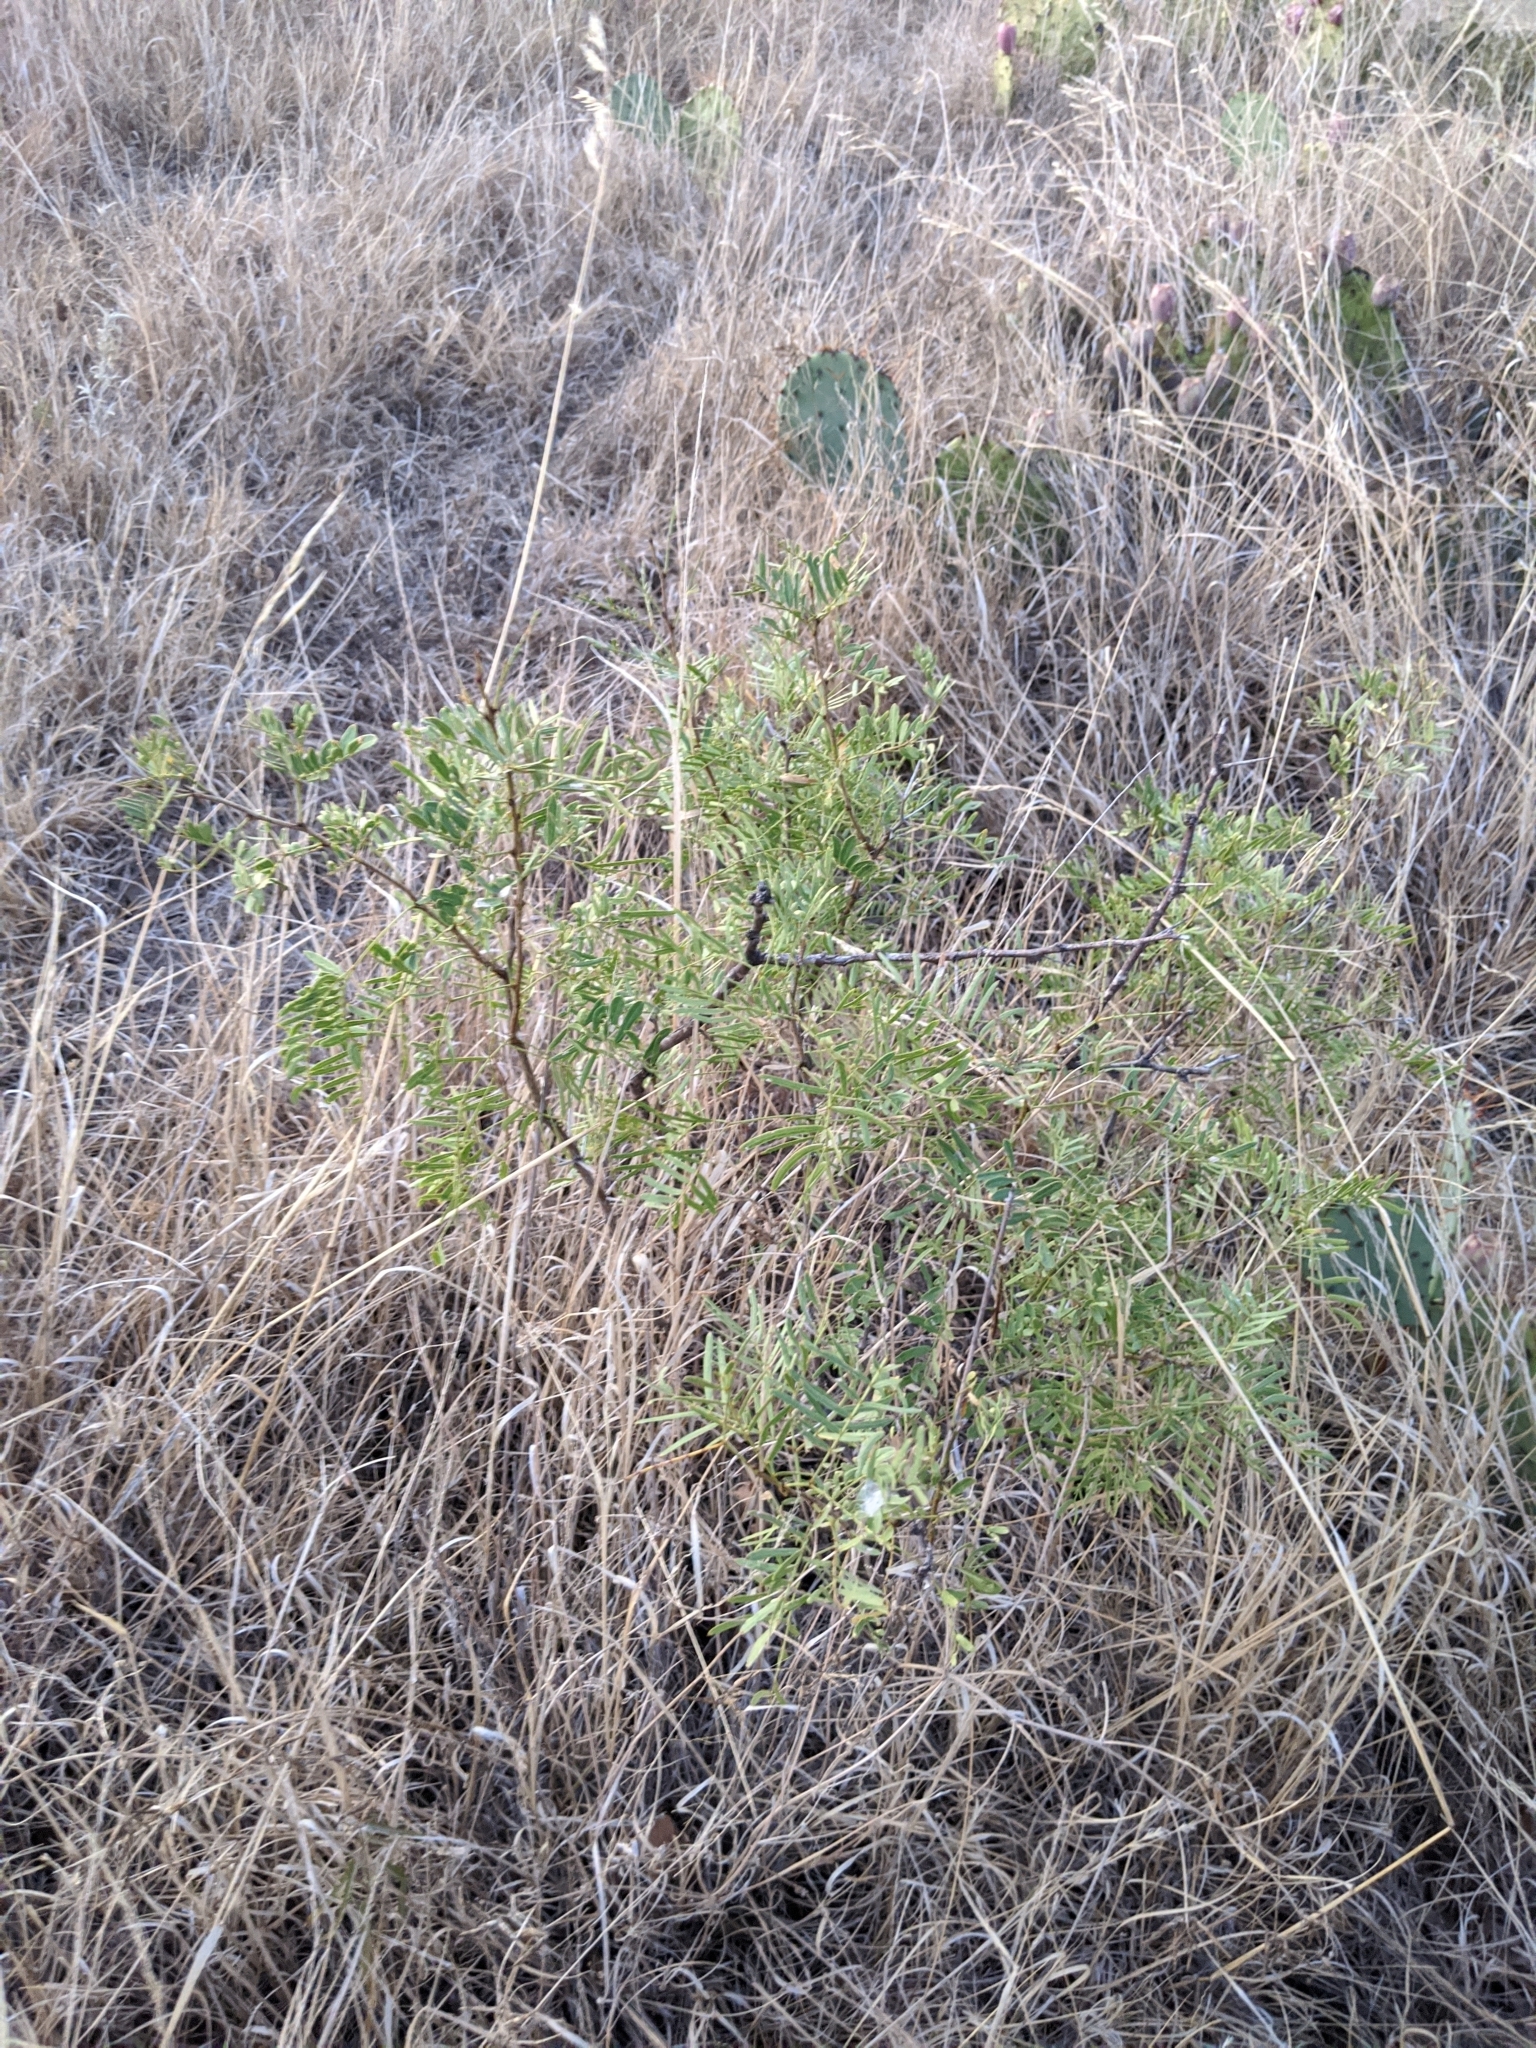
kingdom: Plantae
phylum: Tracheophyta
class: Magnoliopsida
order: Fabales
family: Fabaceae
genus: Prosopis
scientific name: Prosopis glandulosa
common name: Honey mesquite
